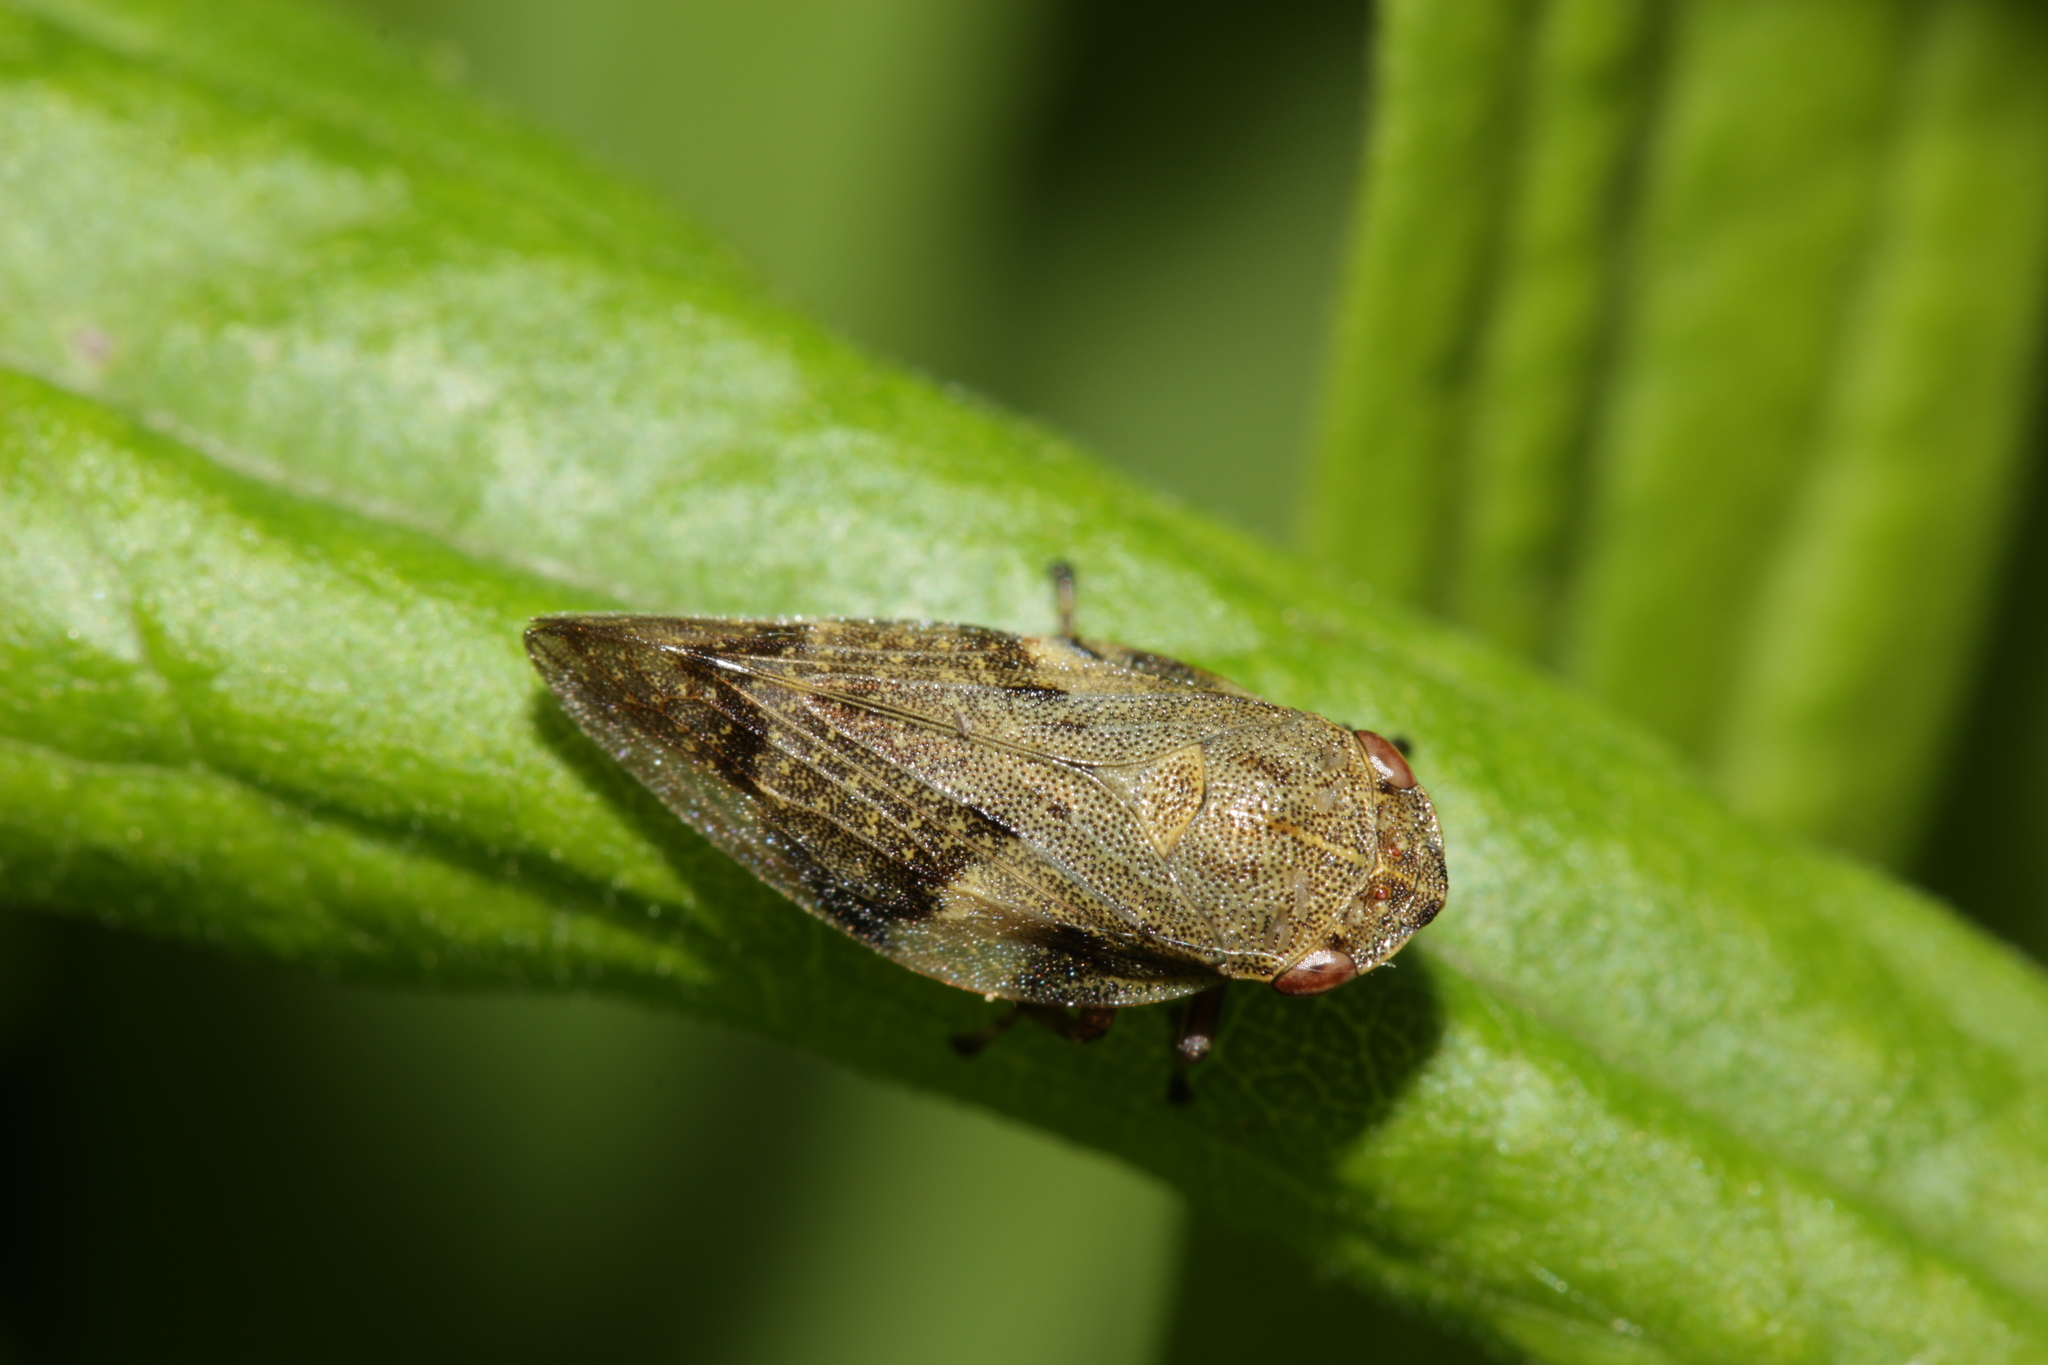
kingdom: Animalia
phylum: Arthropoda
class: Insecta
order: Hemiptera
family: Aphrophoridae
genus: Aphrophora
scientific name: Aphrophora alni
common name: European alder spittlebug
